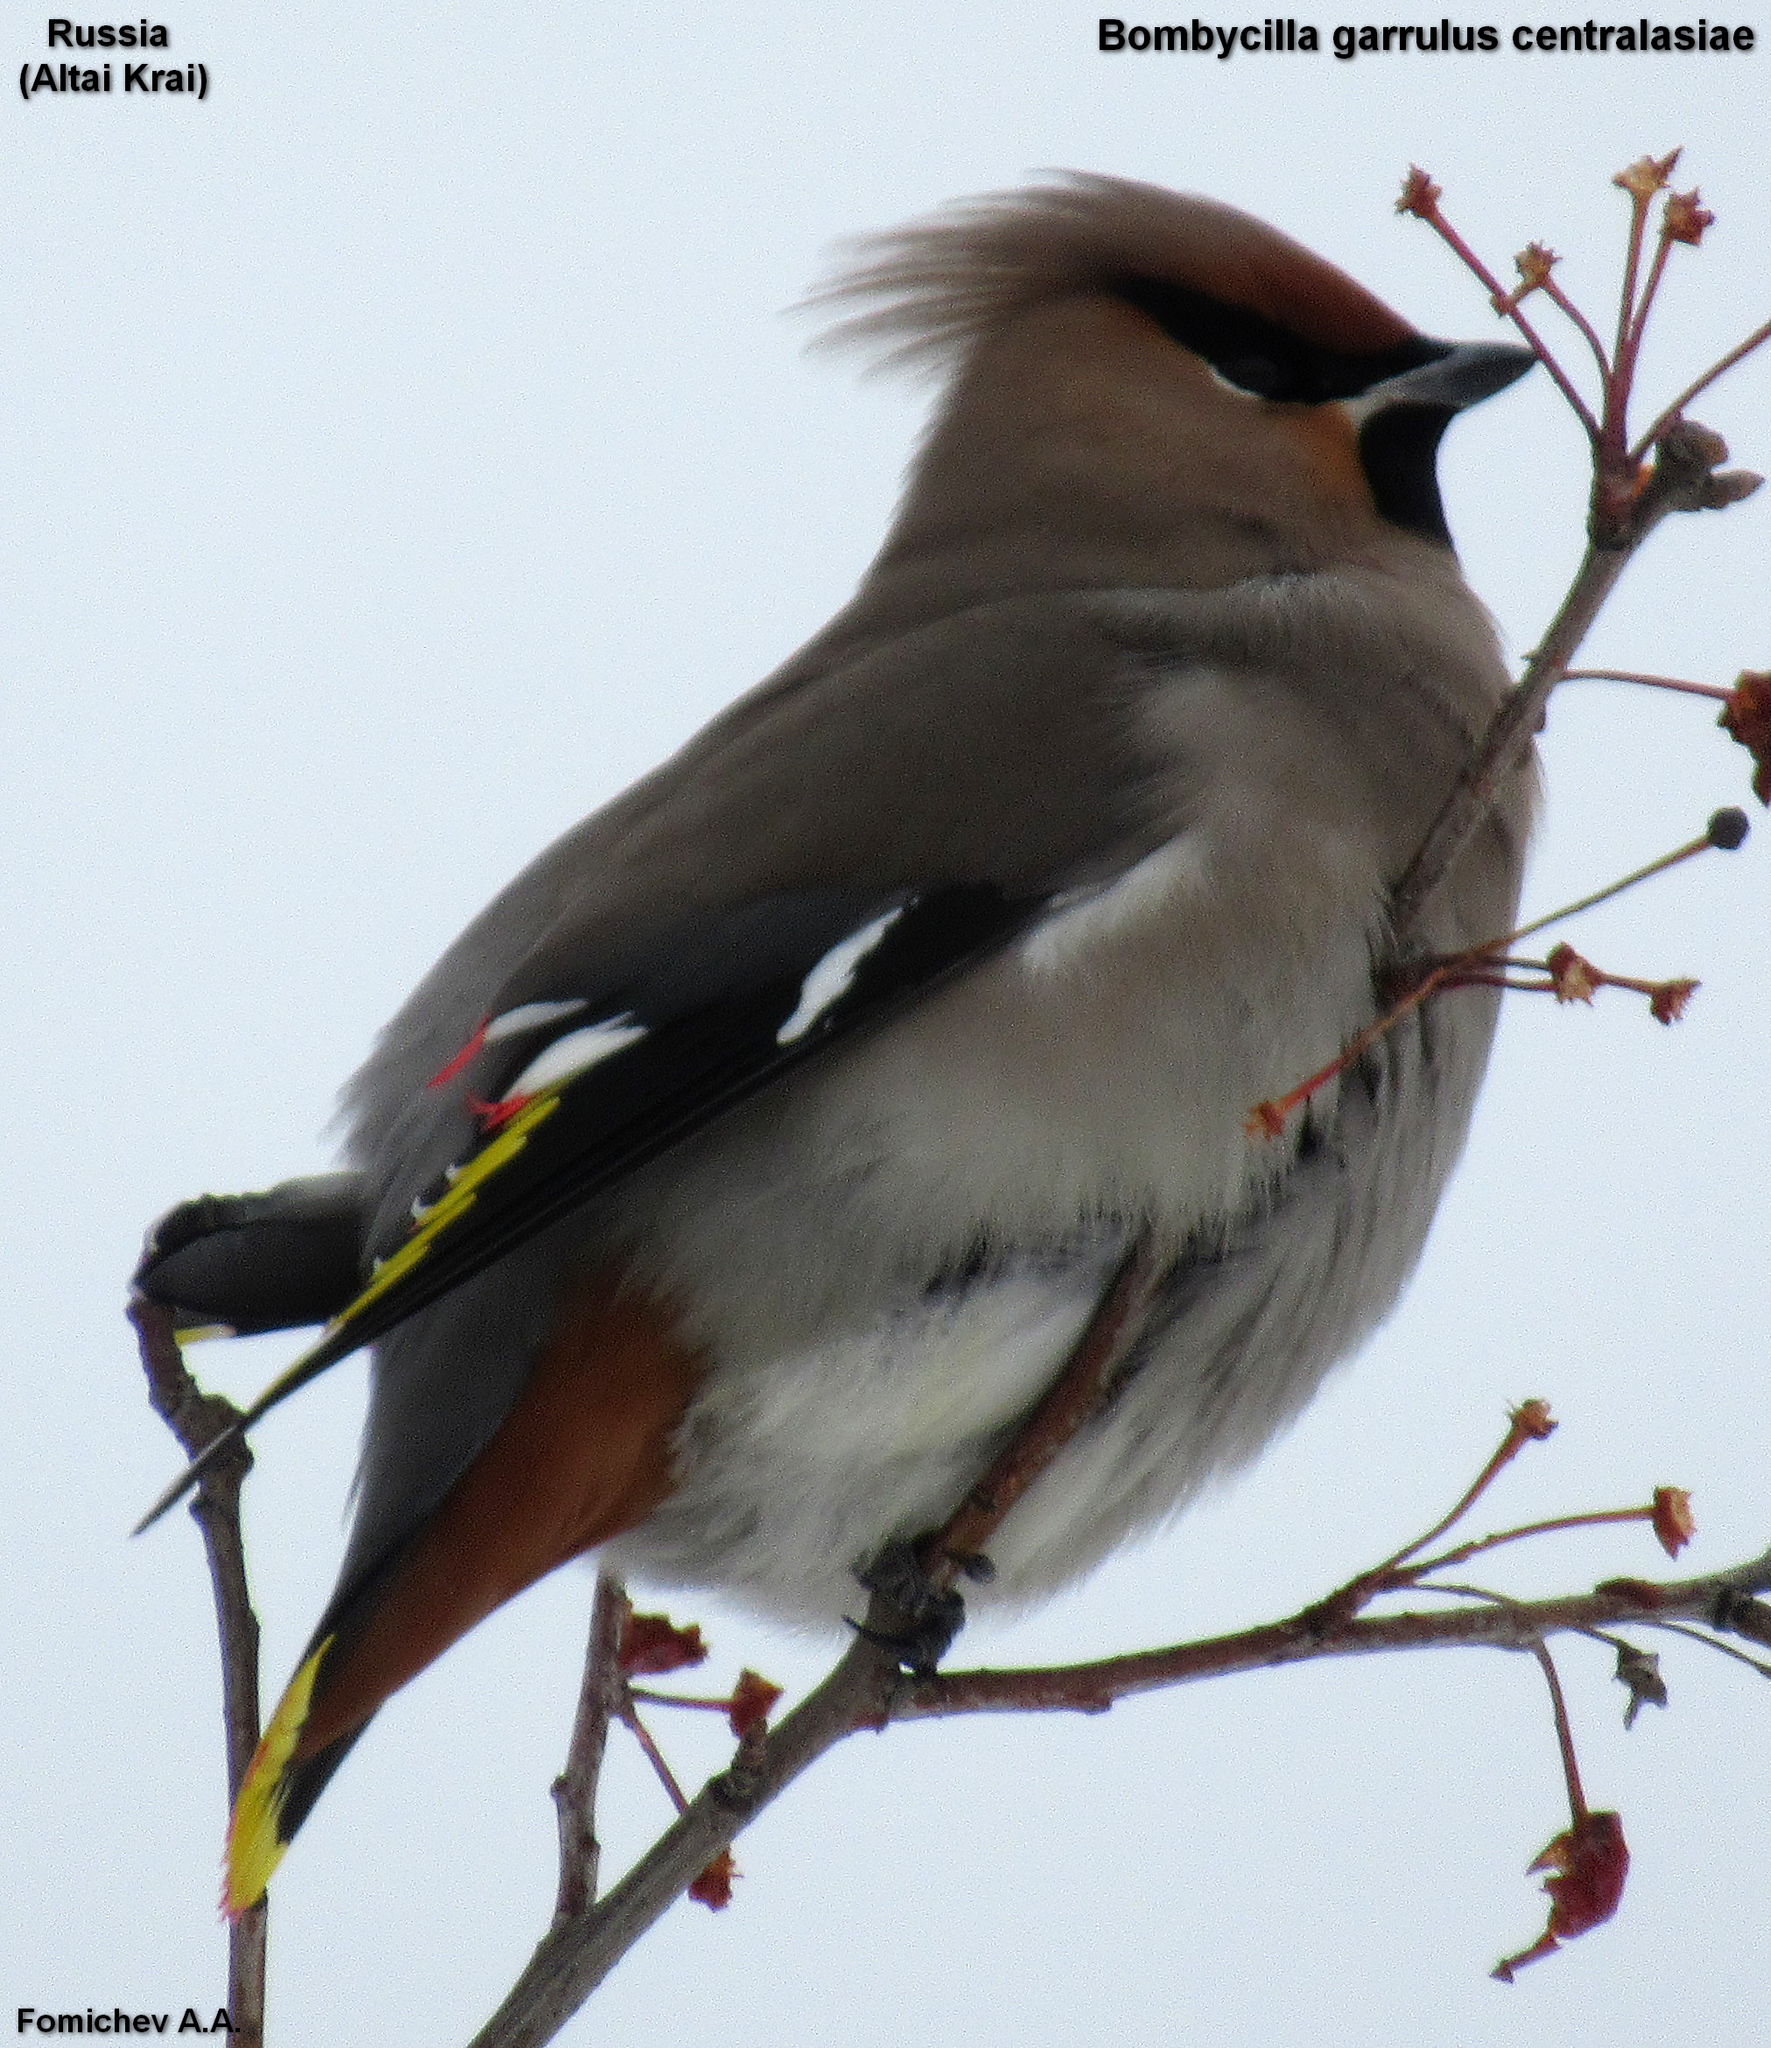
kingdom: Animalia
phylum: Chordata
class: Aves
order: Passeriformes
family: Bombycillidae
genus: Bombycilla
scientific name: Bombycilla garrulus
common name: Bohemian waxwing
